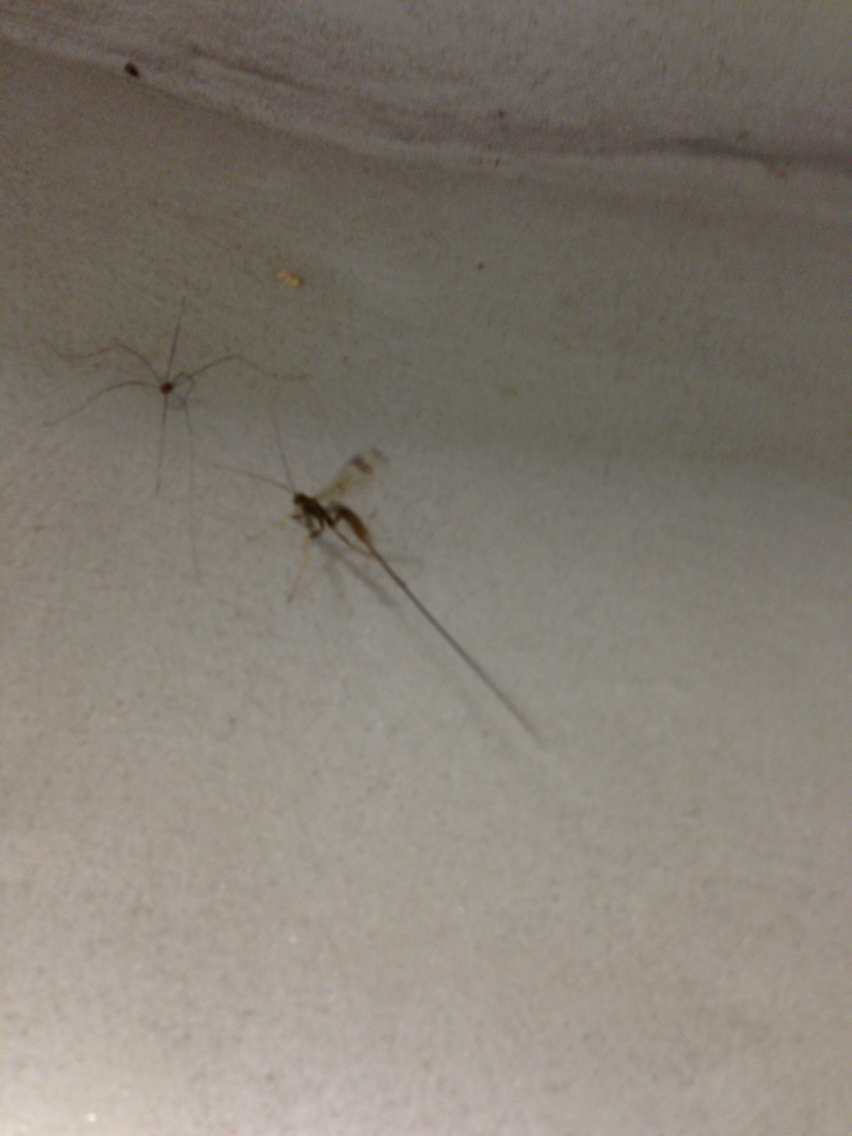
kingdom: Animalia
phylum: Arthropoda
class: Insecta
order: Hymenoptera
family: Ichneumonidae
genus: Megarhyssa
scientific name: Megarhyssa macrura
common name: Long-tailed giant ichneumonid wasp
